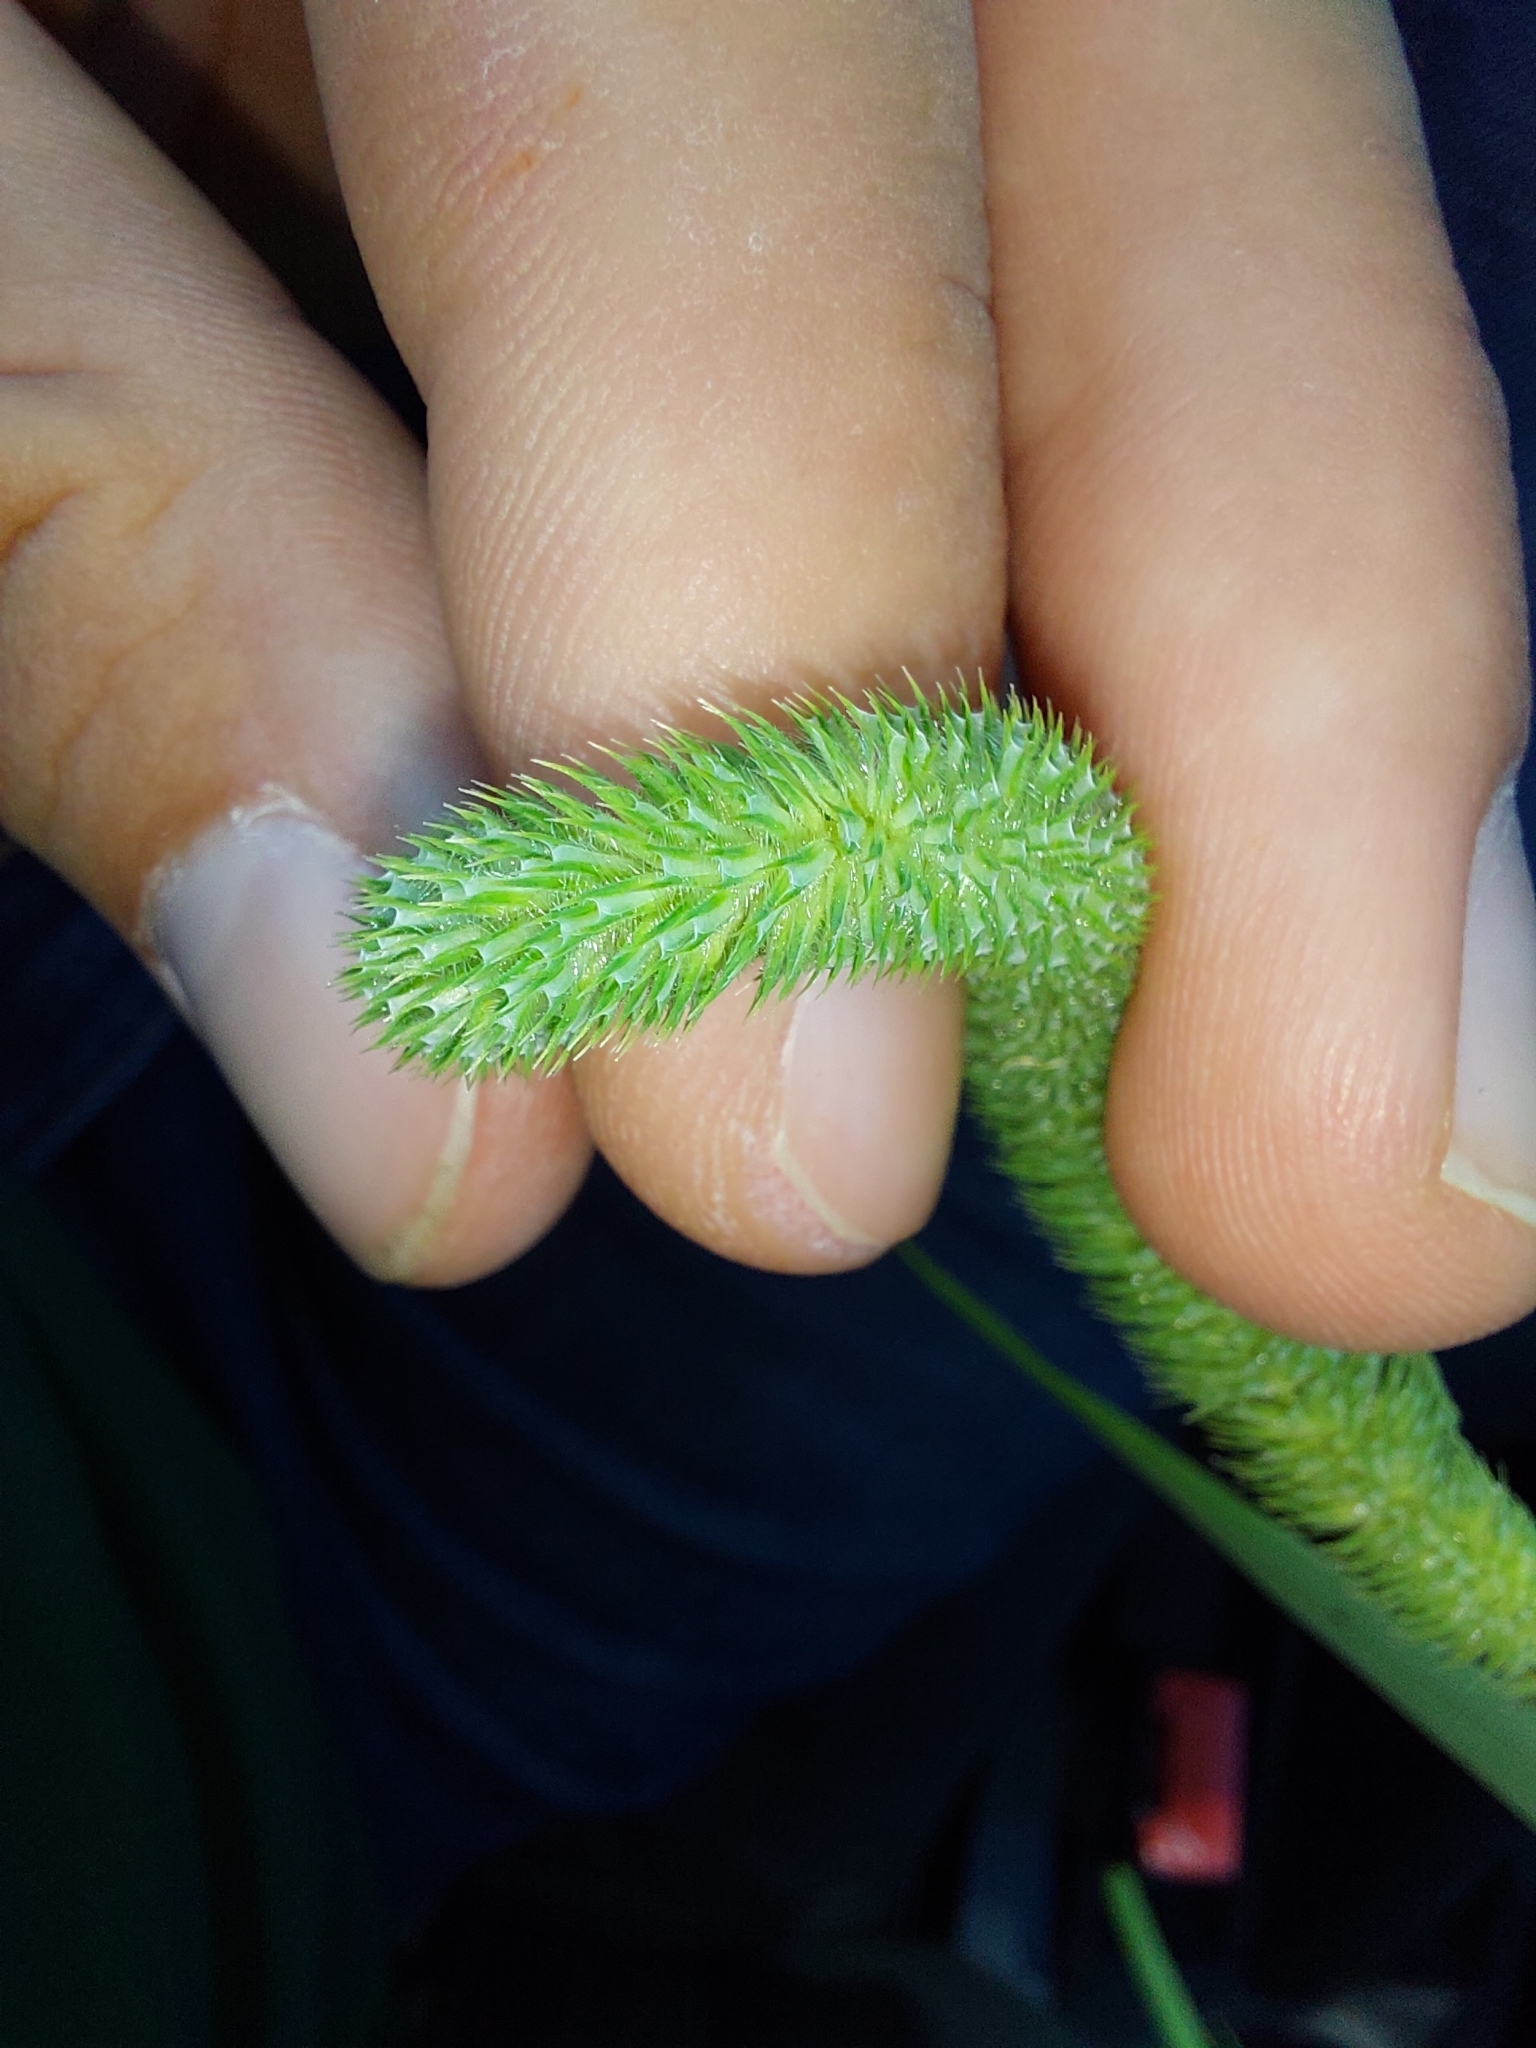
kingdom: Plantae
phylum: Tracheophyta
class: Liliopsida
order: Poales
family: Poaceae
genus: Phleum
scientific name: Phleum pratense
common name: Timothy grass
